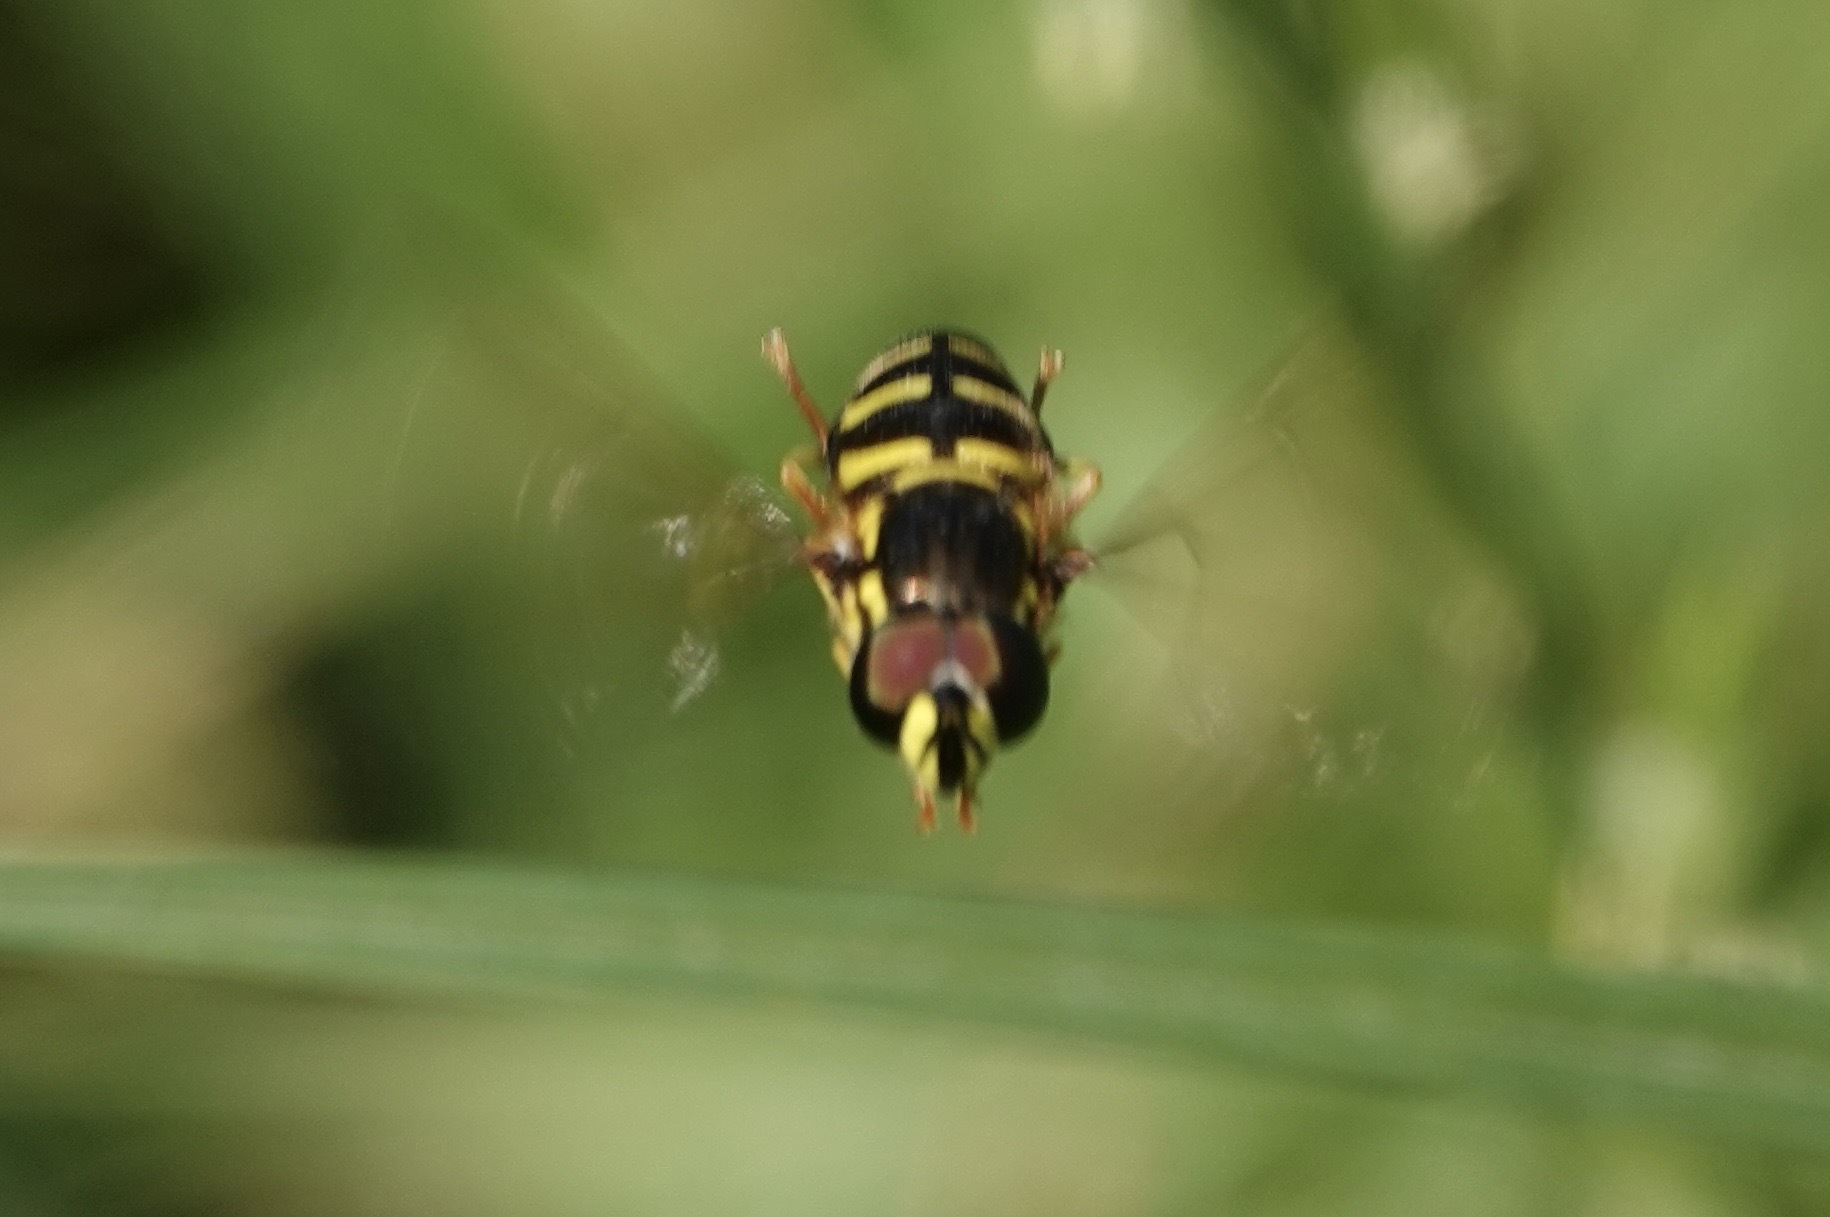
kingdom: Animalia
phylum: Arthropoda
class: Insecta
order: Diptera
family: Syrphidae
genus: Chrysotoxum
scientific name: Chrysotoxum festivum
